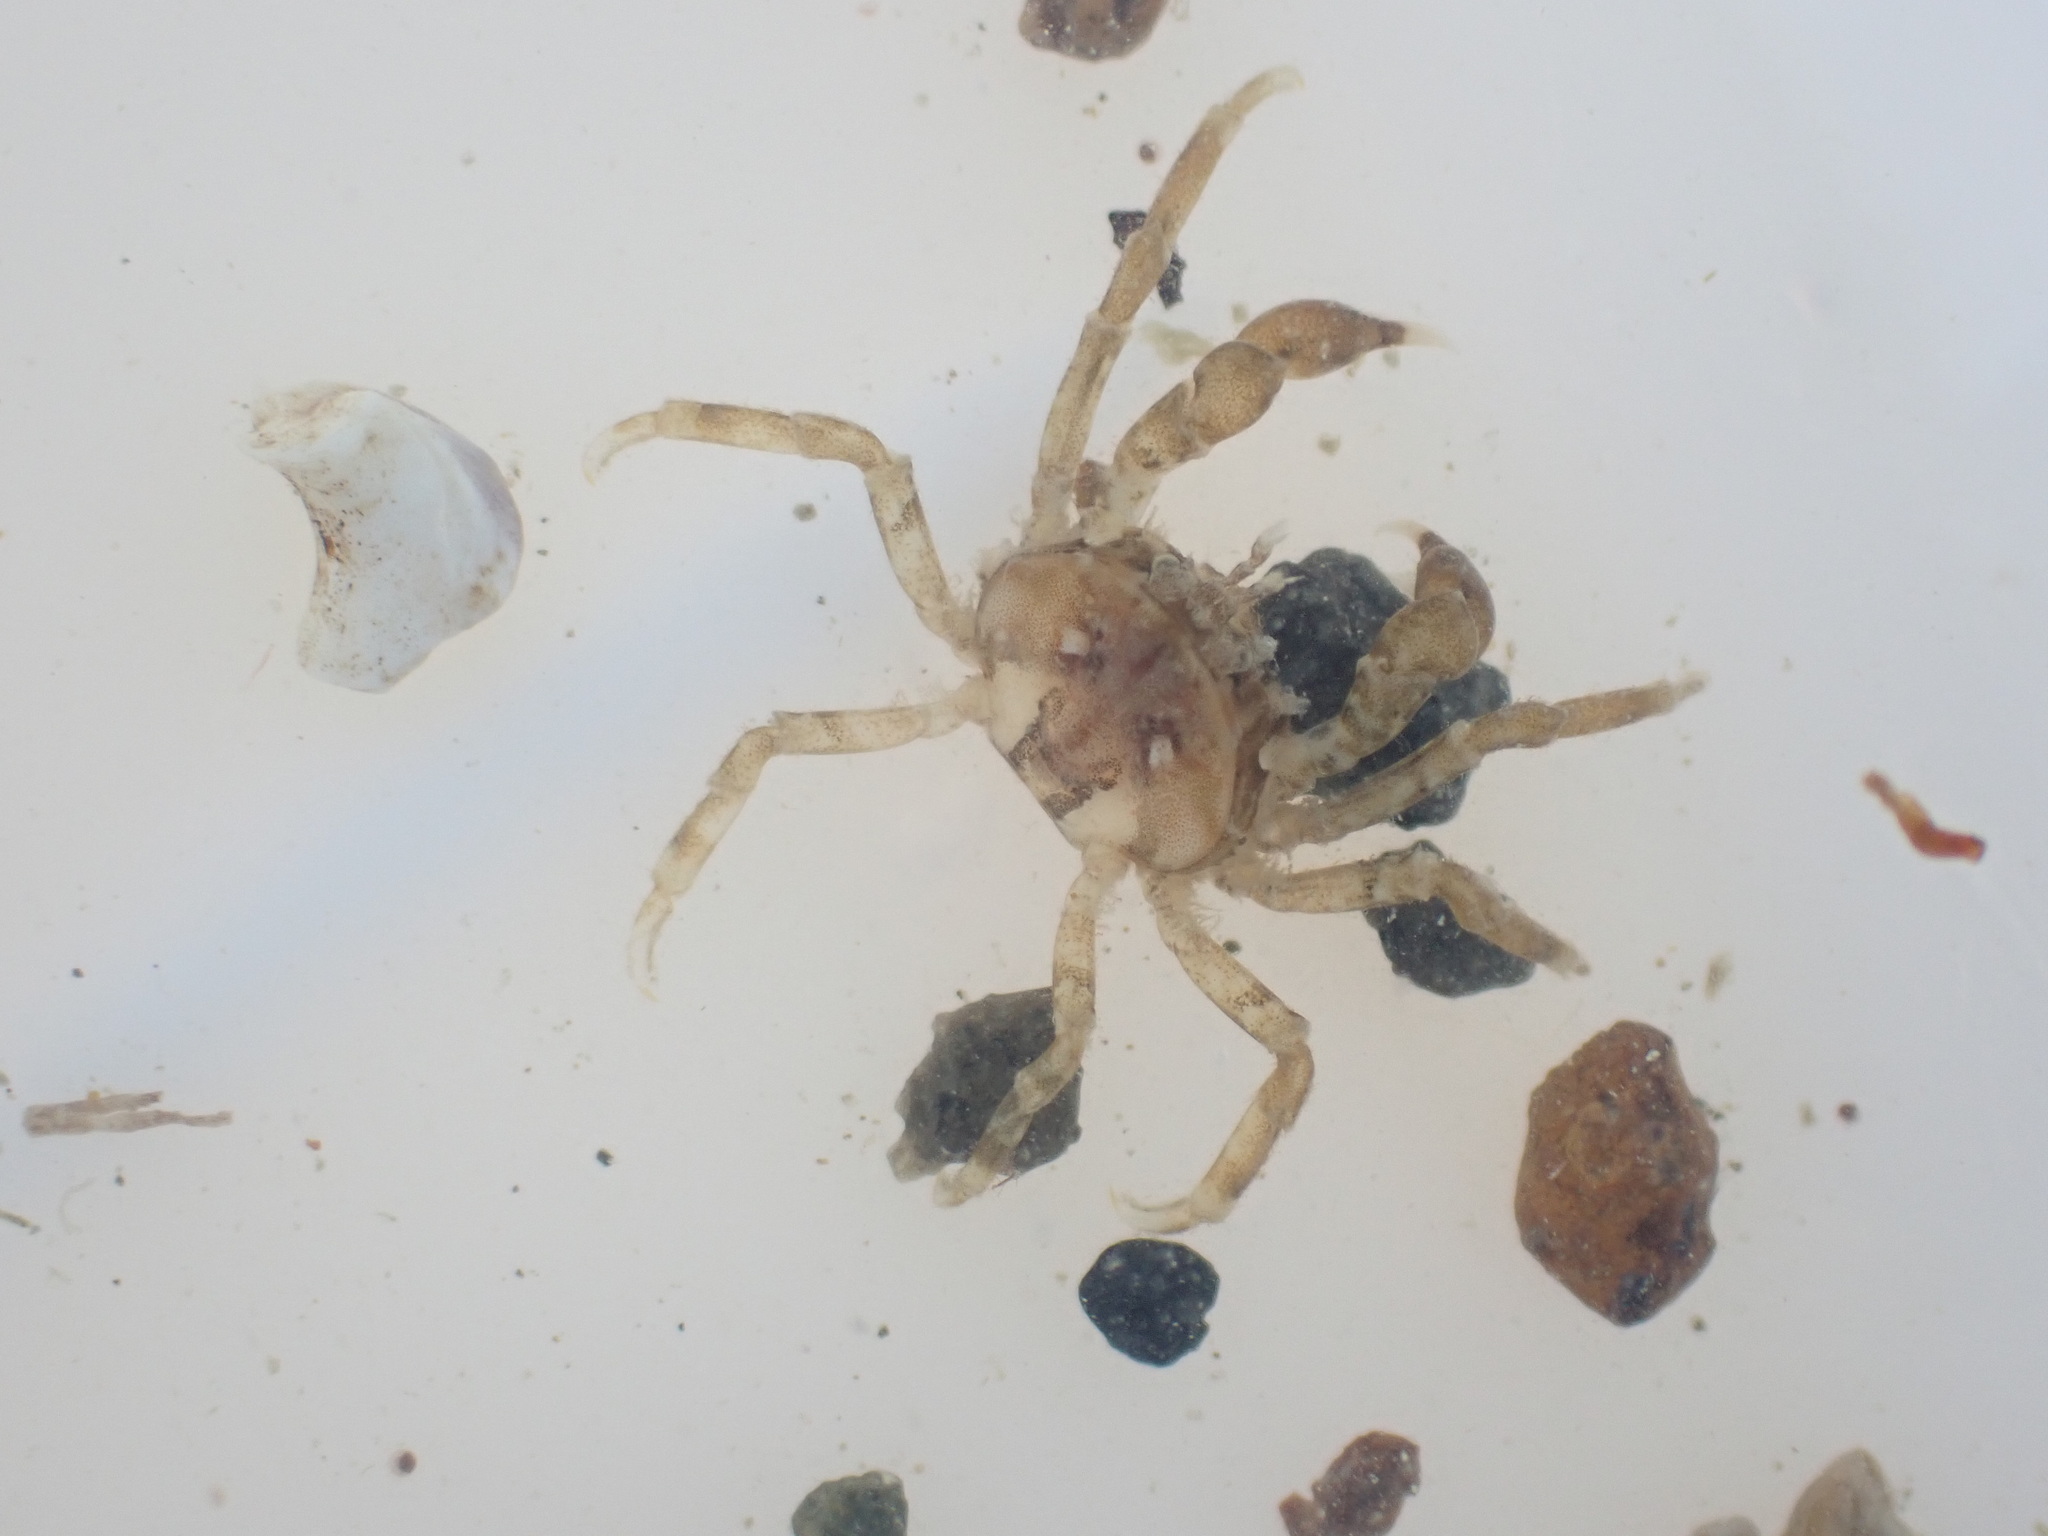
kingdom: Animalia
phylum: Arthropoda
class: Malacostraca
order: Decapoda
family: Hymenosomatidae
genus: Halicarcinus
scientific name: Halicarcinus quoyi
